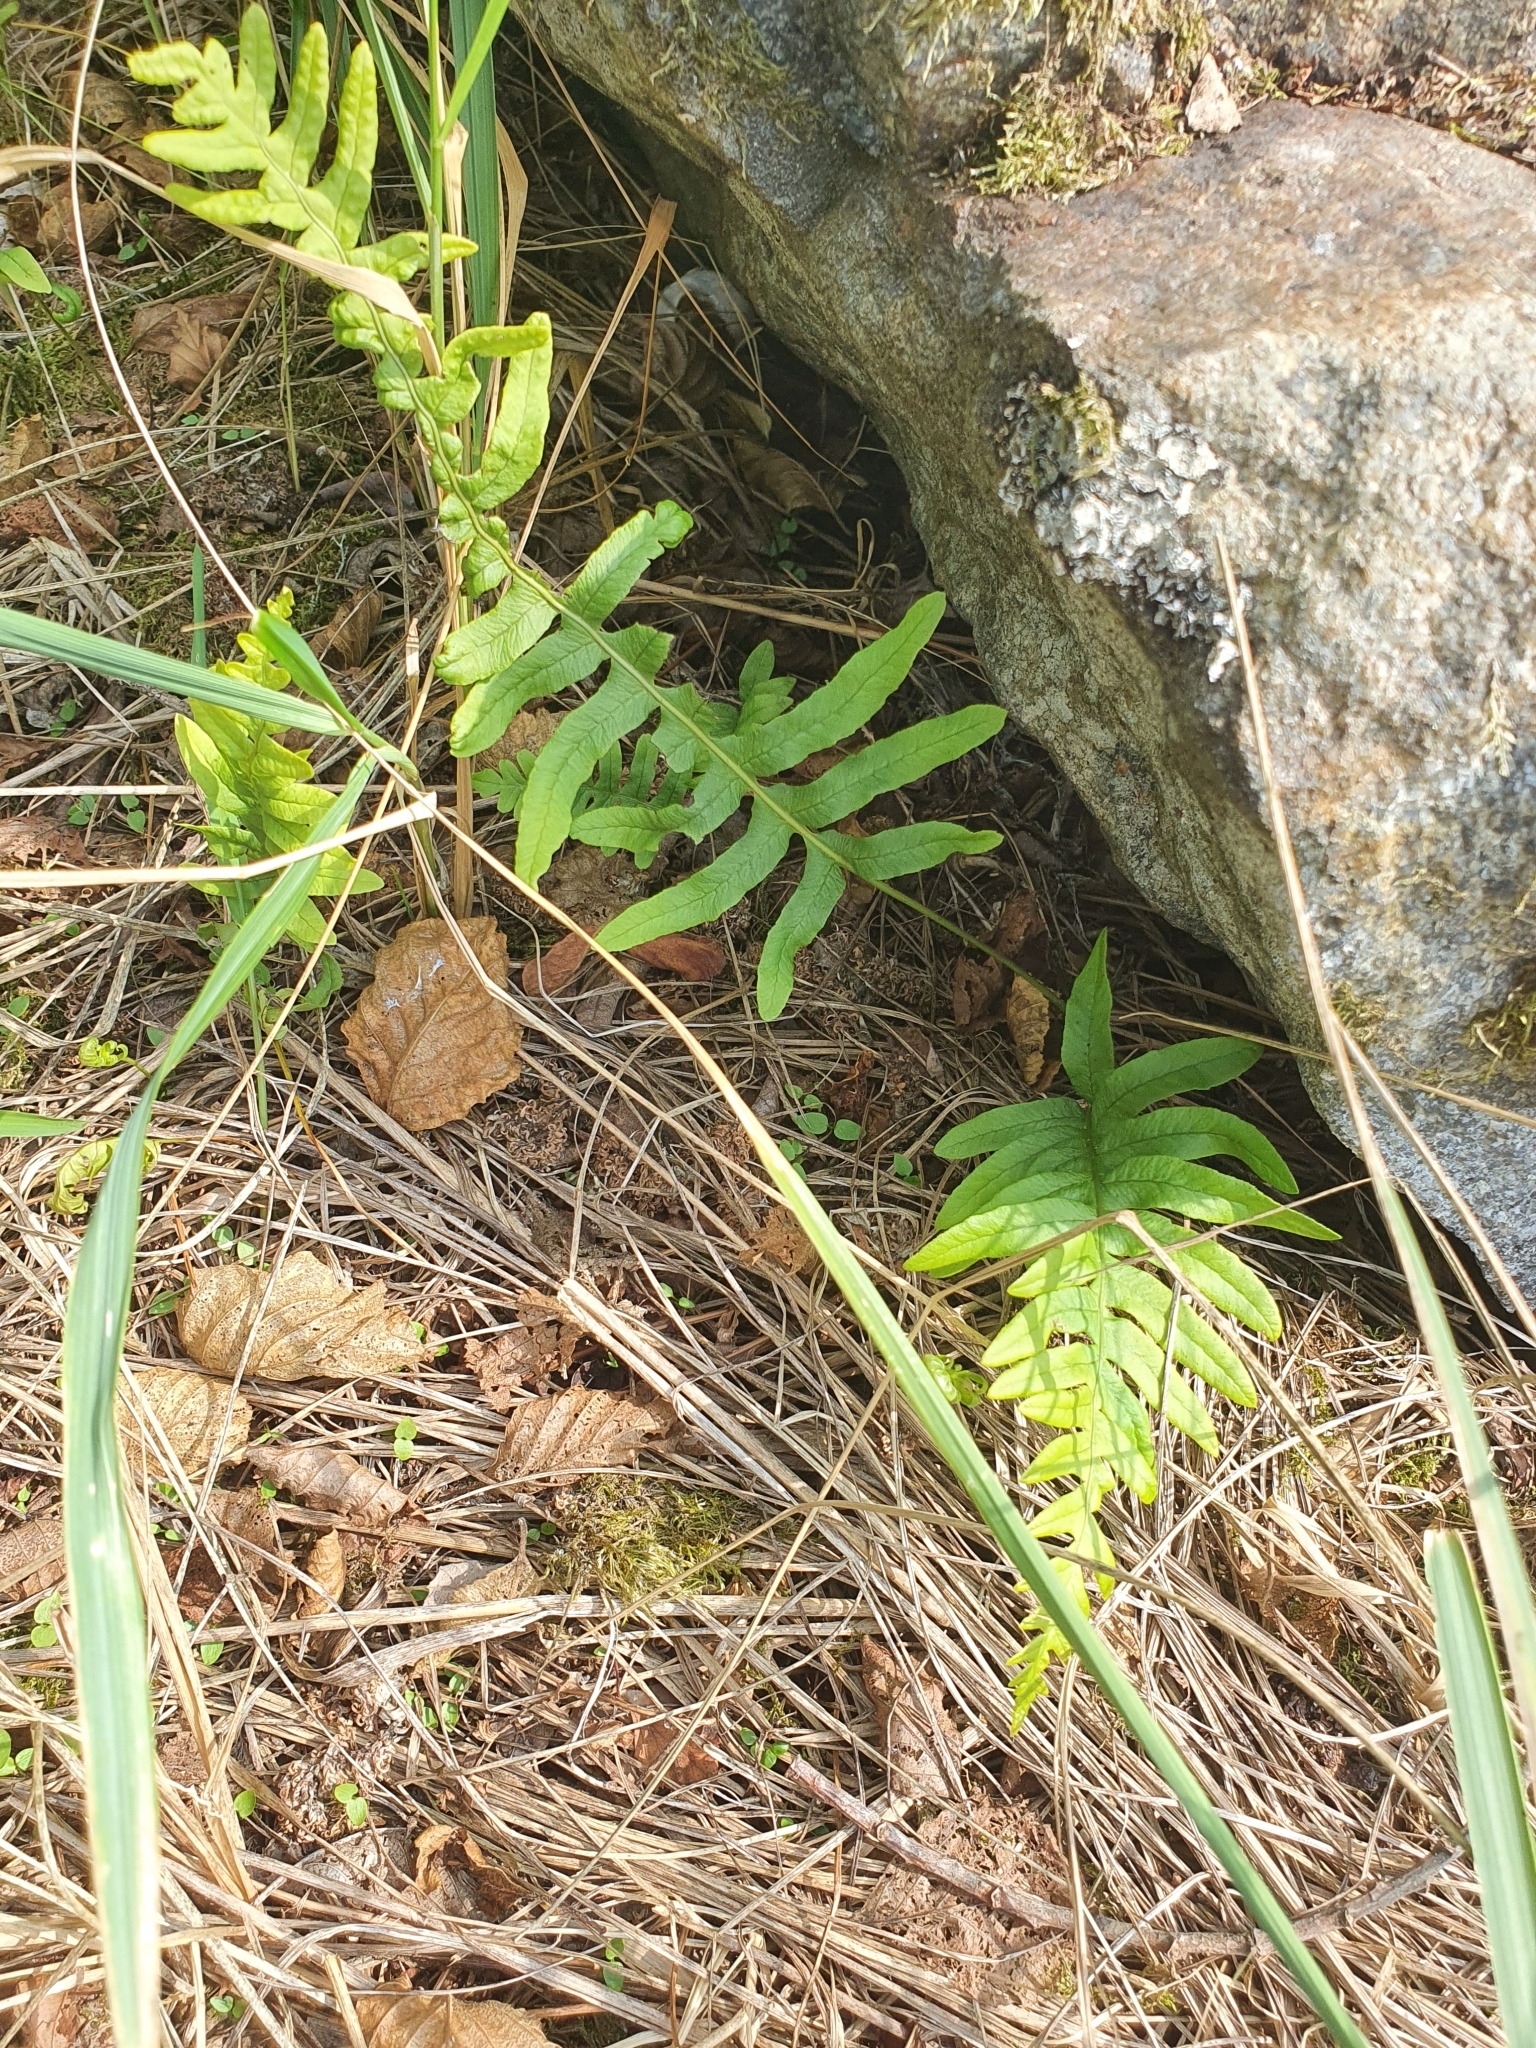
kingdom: Plantae
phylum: Tracheophyta
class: Polypodiopsida
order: Polypodiales
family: Polypodiaceae
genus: Polypodium
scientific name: Polypodium vulgare
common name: Common polypody
